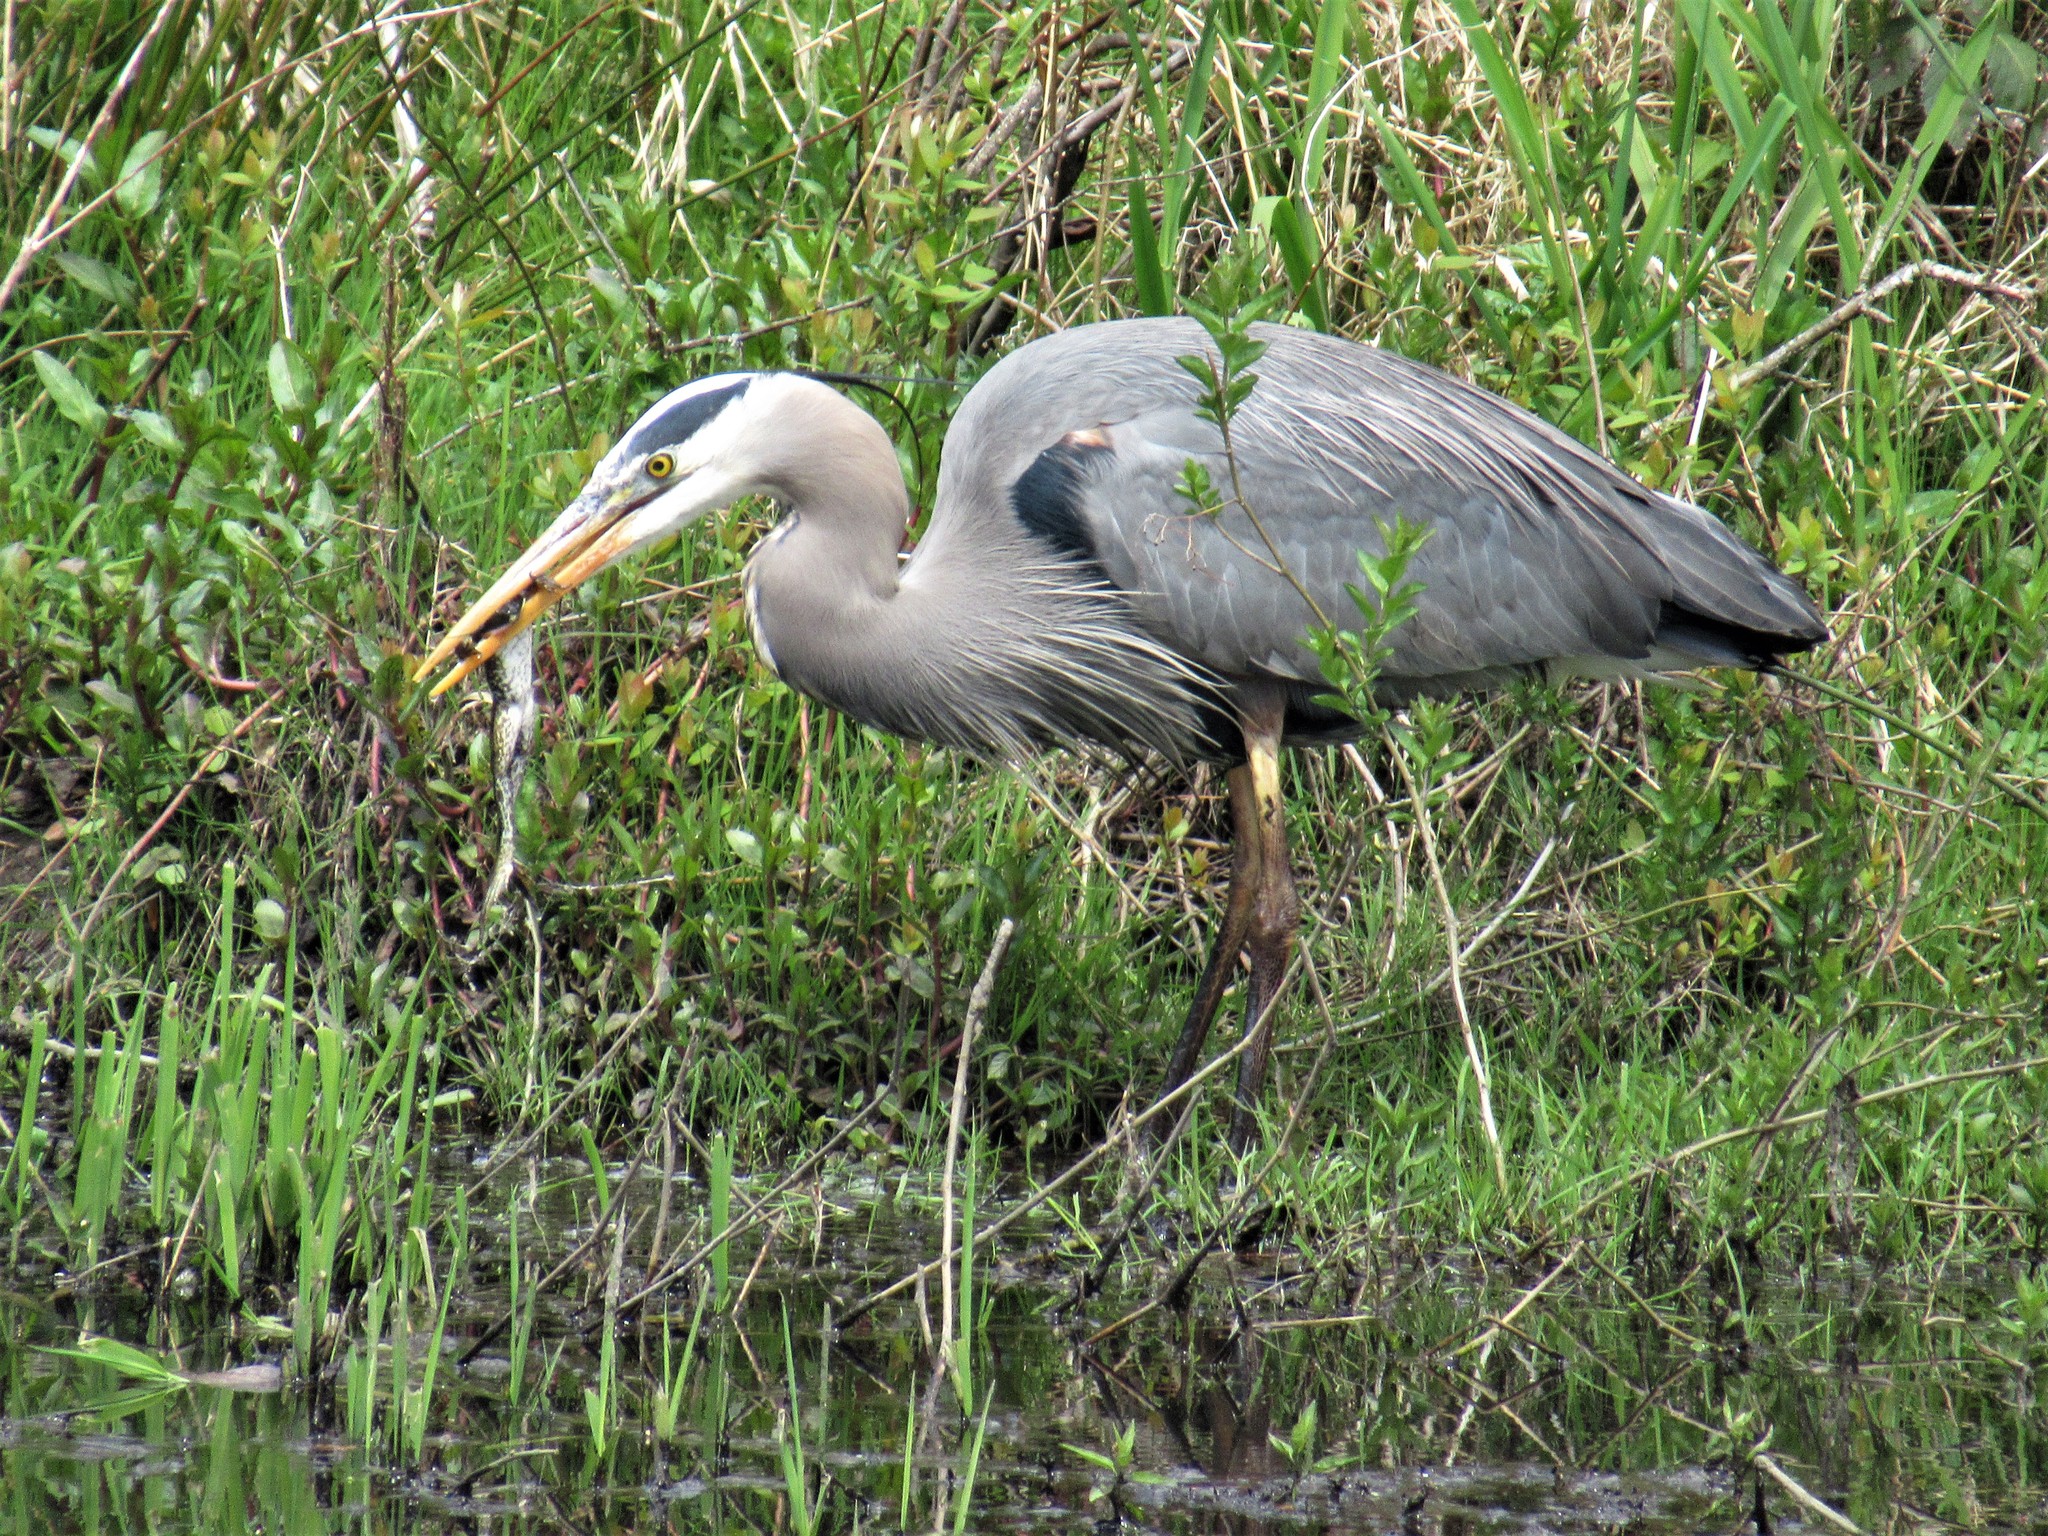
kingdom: Animalia
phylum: Chordata
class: Aves
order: Pelecaniformes
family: Ardeidae
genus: Ardea
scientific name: Ardea herodias
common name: Great blue heron
